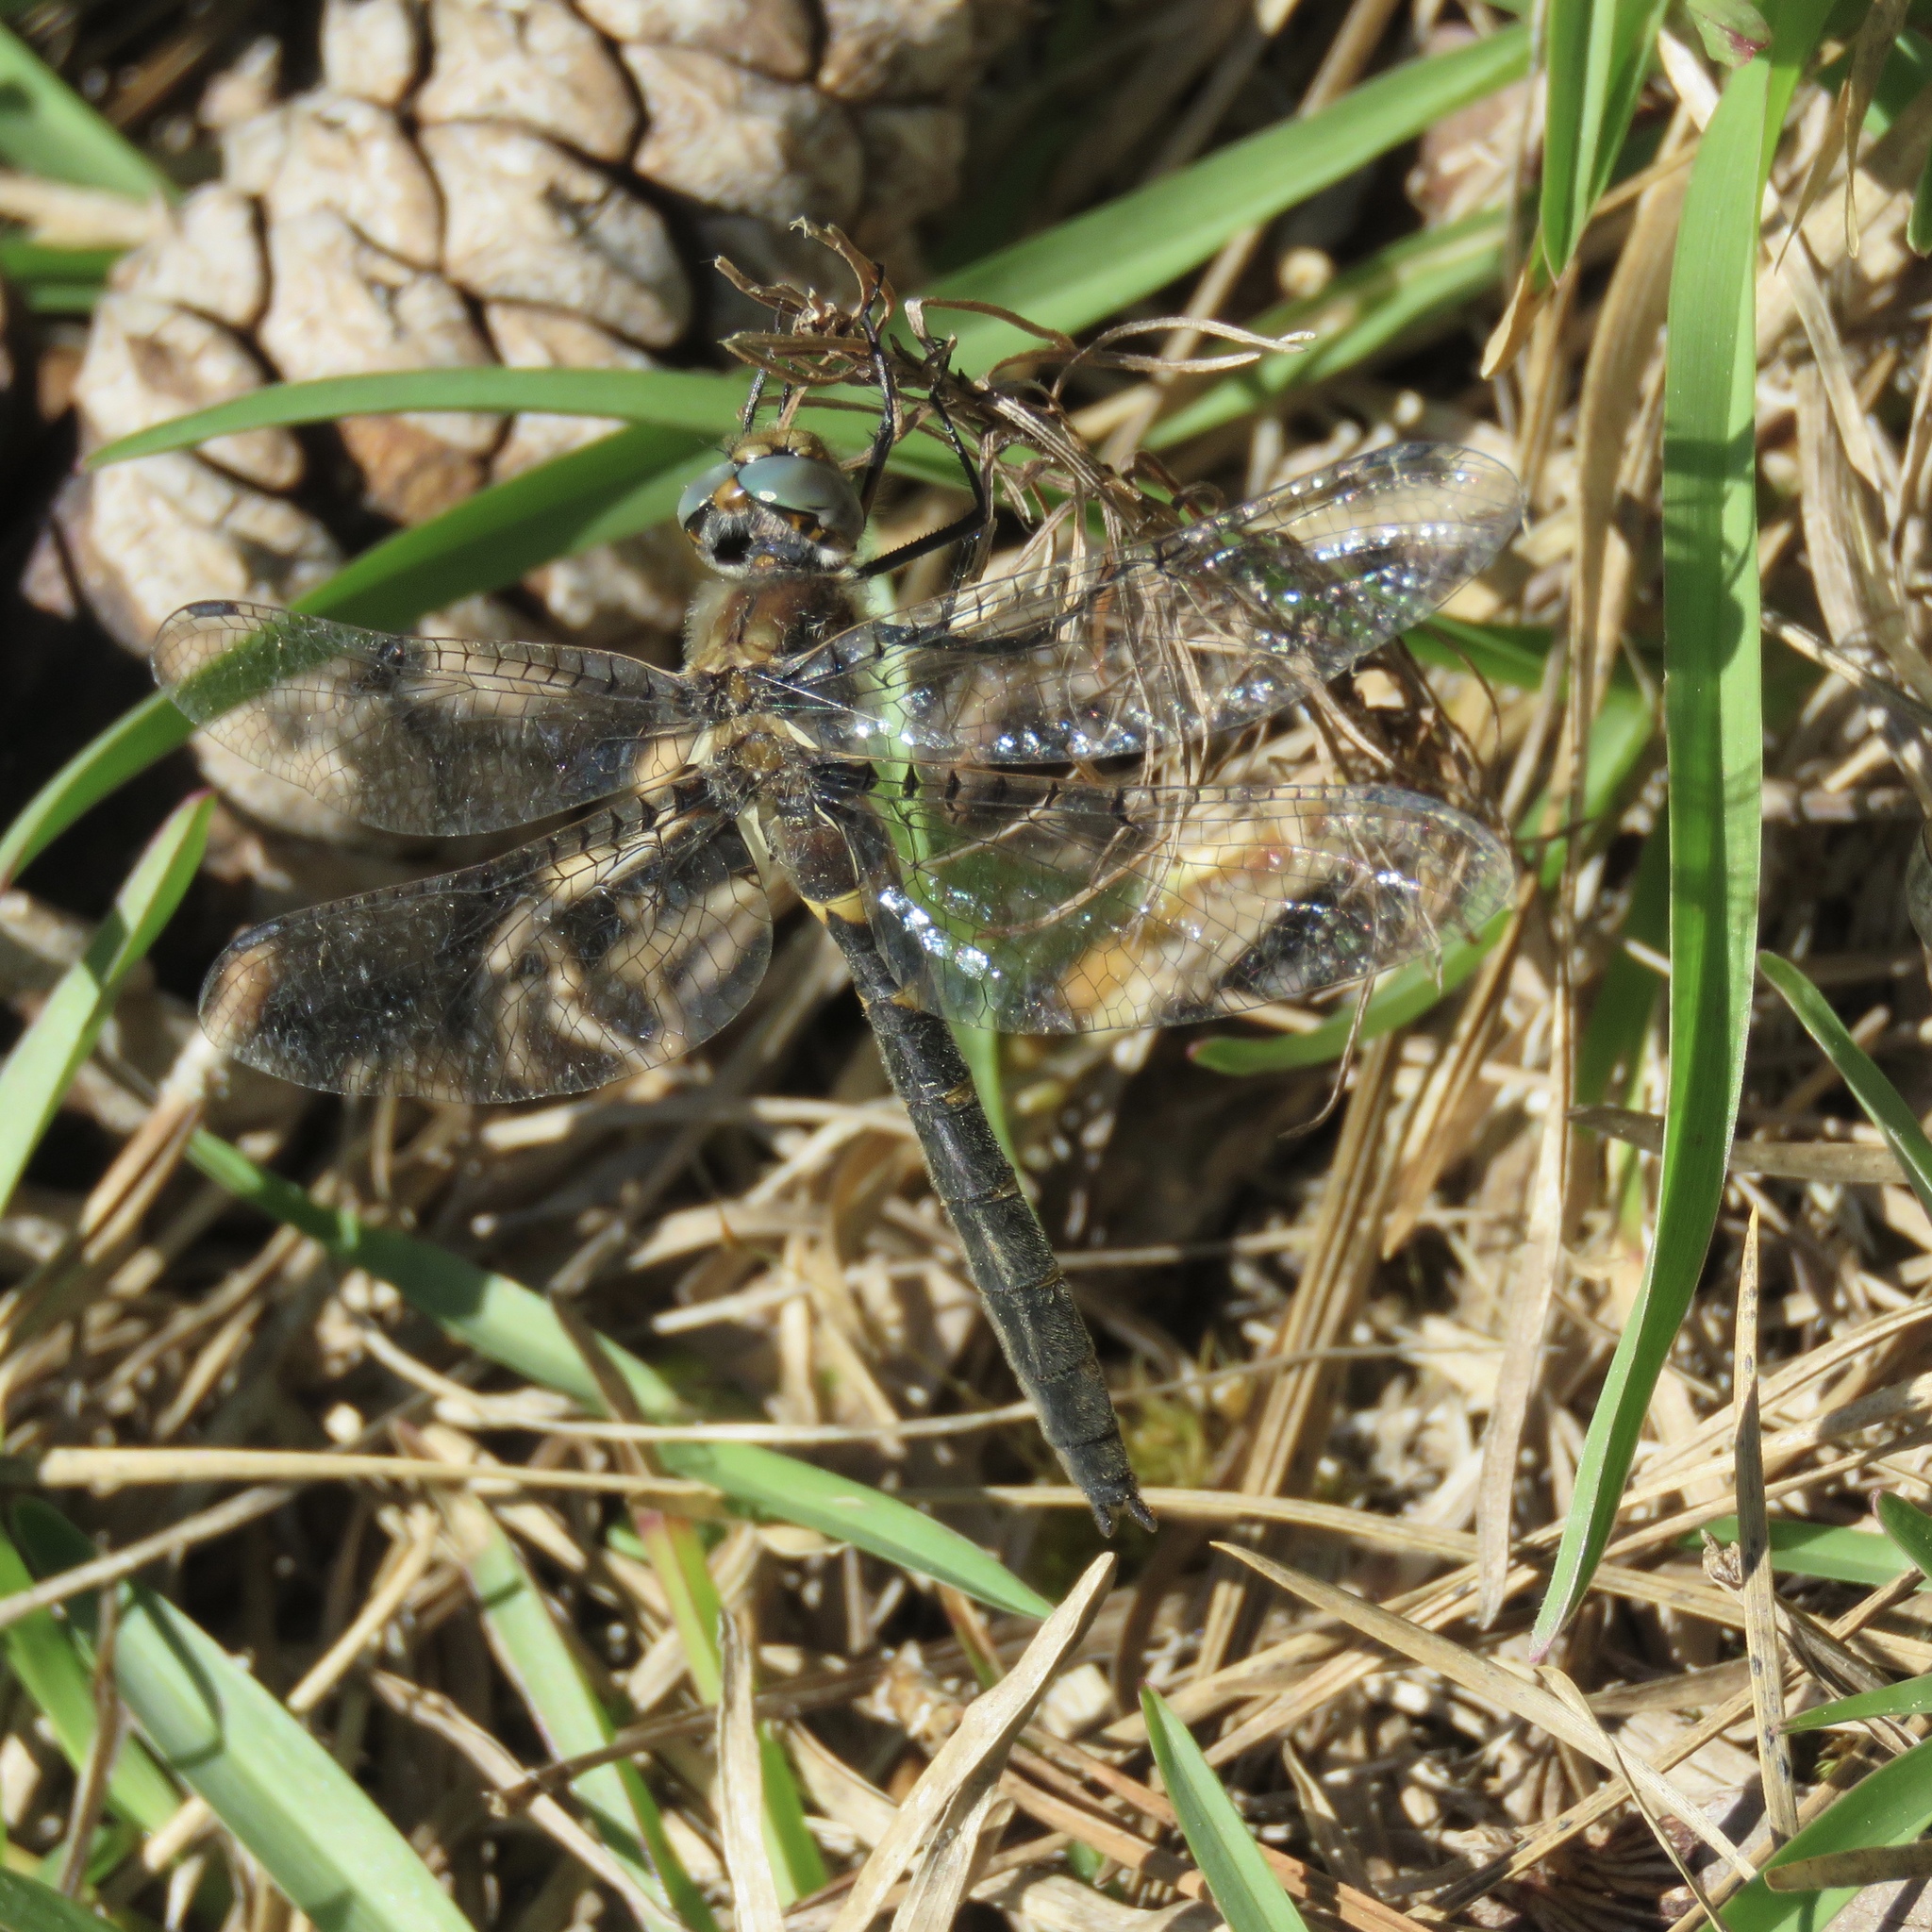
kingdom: Animalia
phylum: Arthropoda
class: Insecta
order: Odonata
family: Corduliidae
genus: Helocordulia
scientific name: Helocordulia selysii
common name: Selys's sundragon
